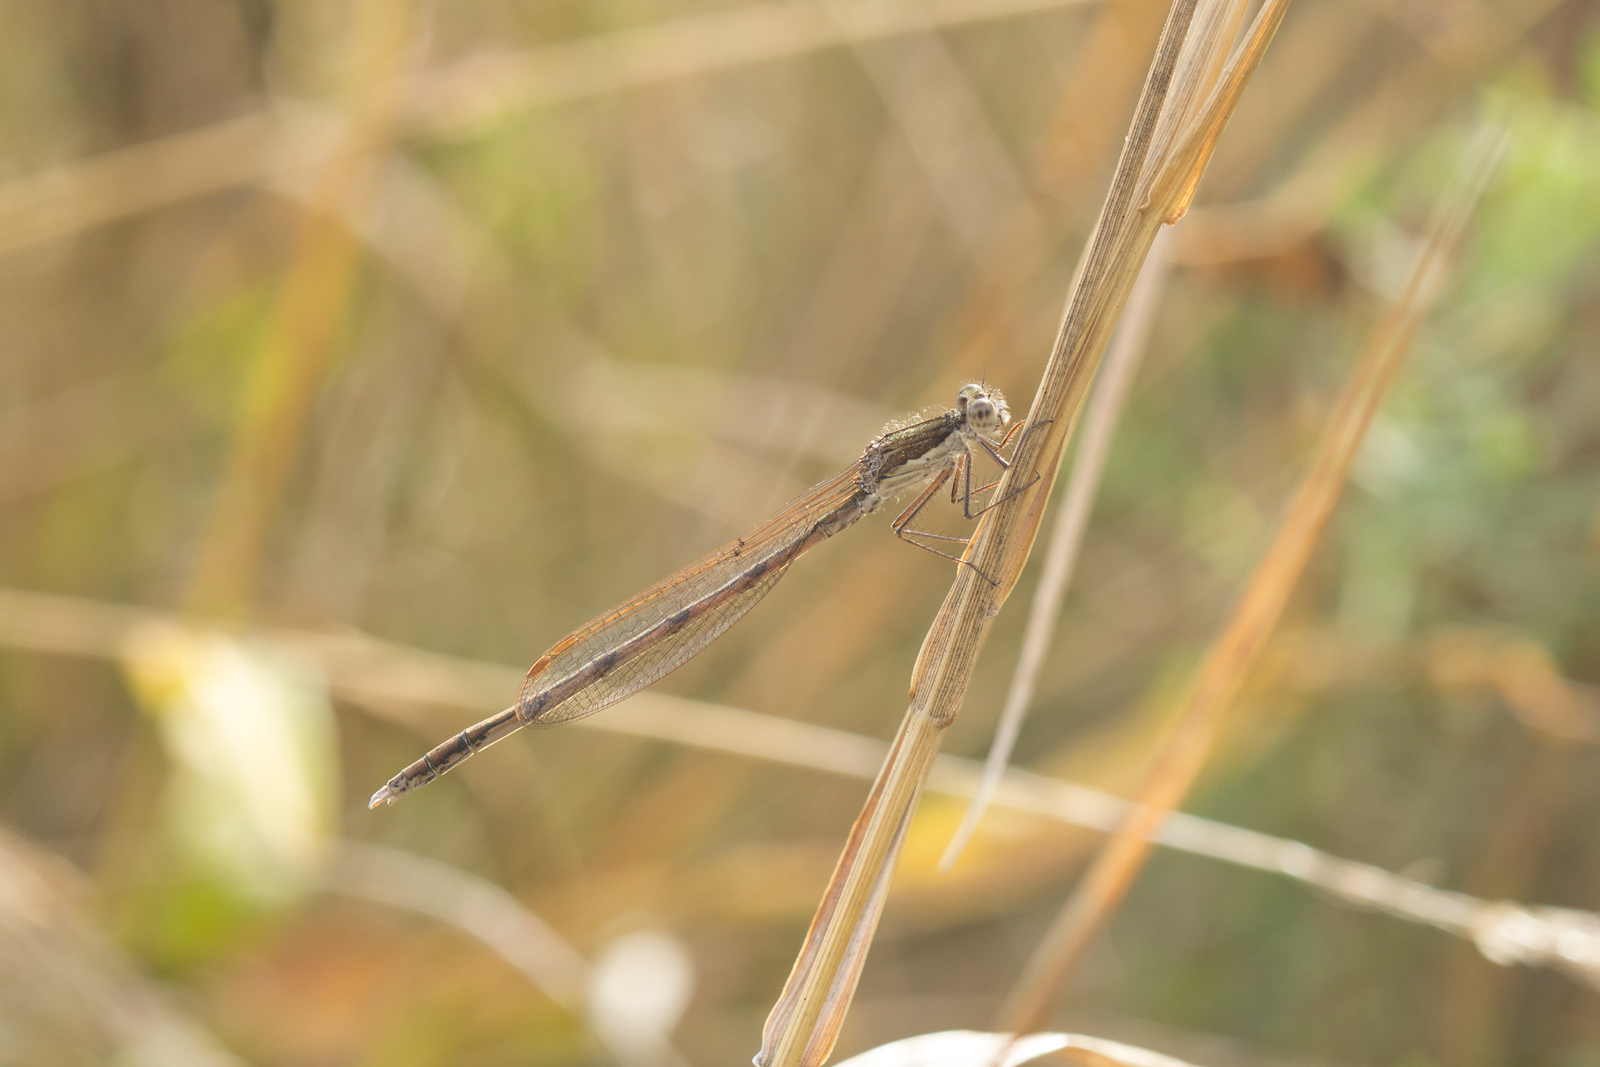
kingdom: Animalia
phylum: Arthropoda
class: Insecta
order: Odonata
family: Lestidae
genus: Sympecma
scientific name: Sympecma fusca
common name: Common winter damsel
